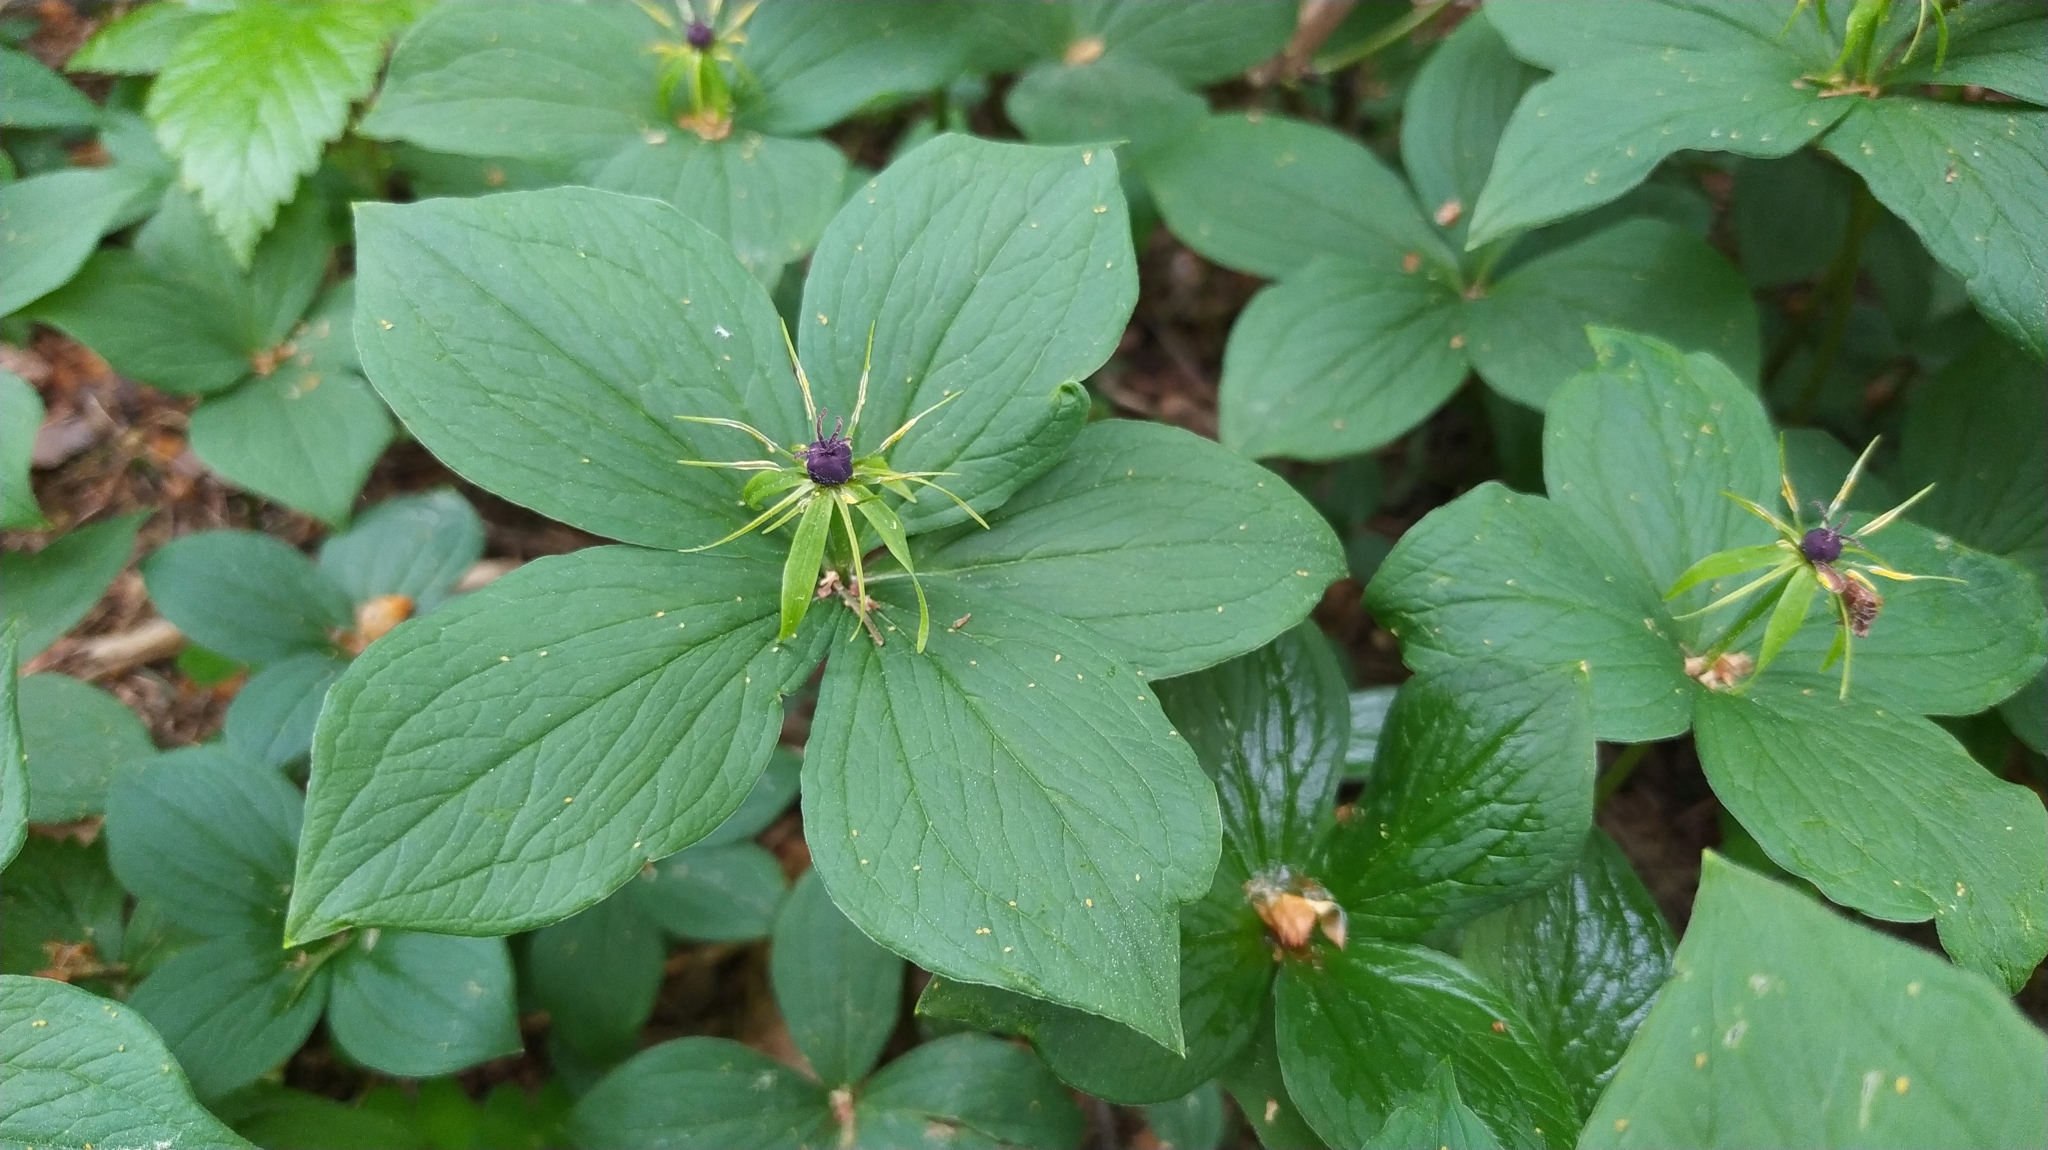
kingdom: Plantae
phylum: Tracheophyta
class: Liliopsida
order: Liliales
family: Melanthiaceae
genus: Paris
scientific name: Paris quadrifolia
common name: Herb-paris
